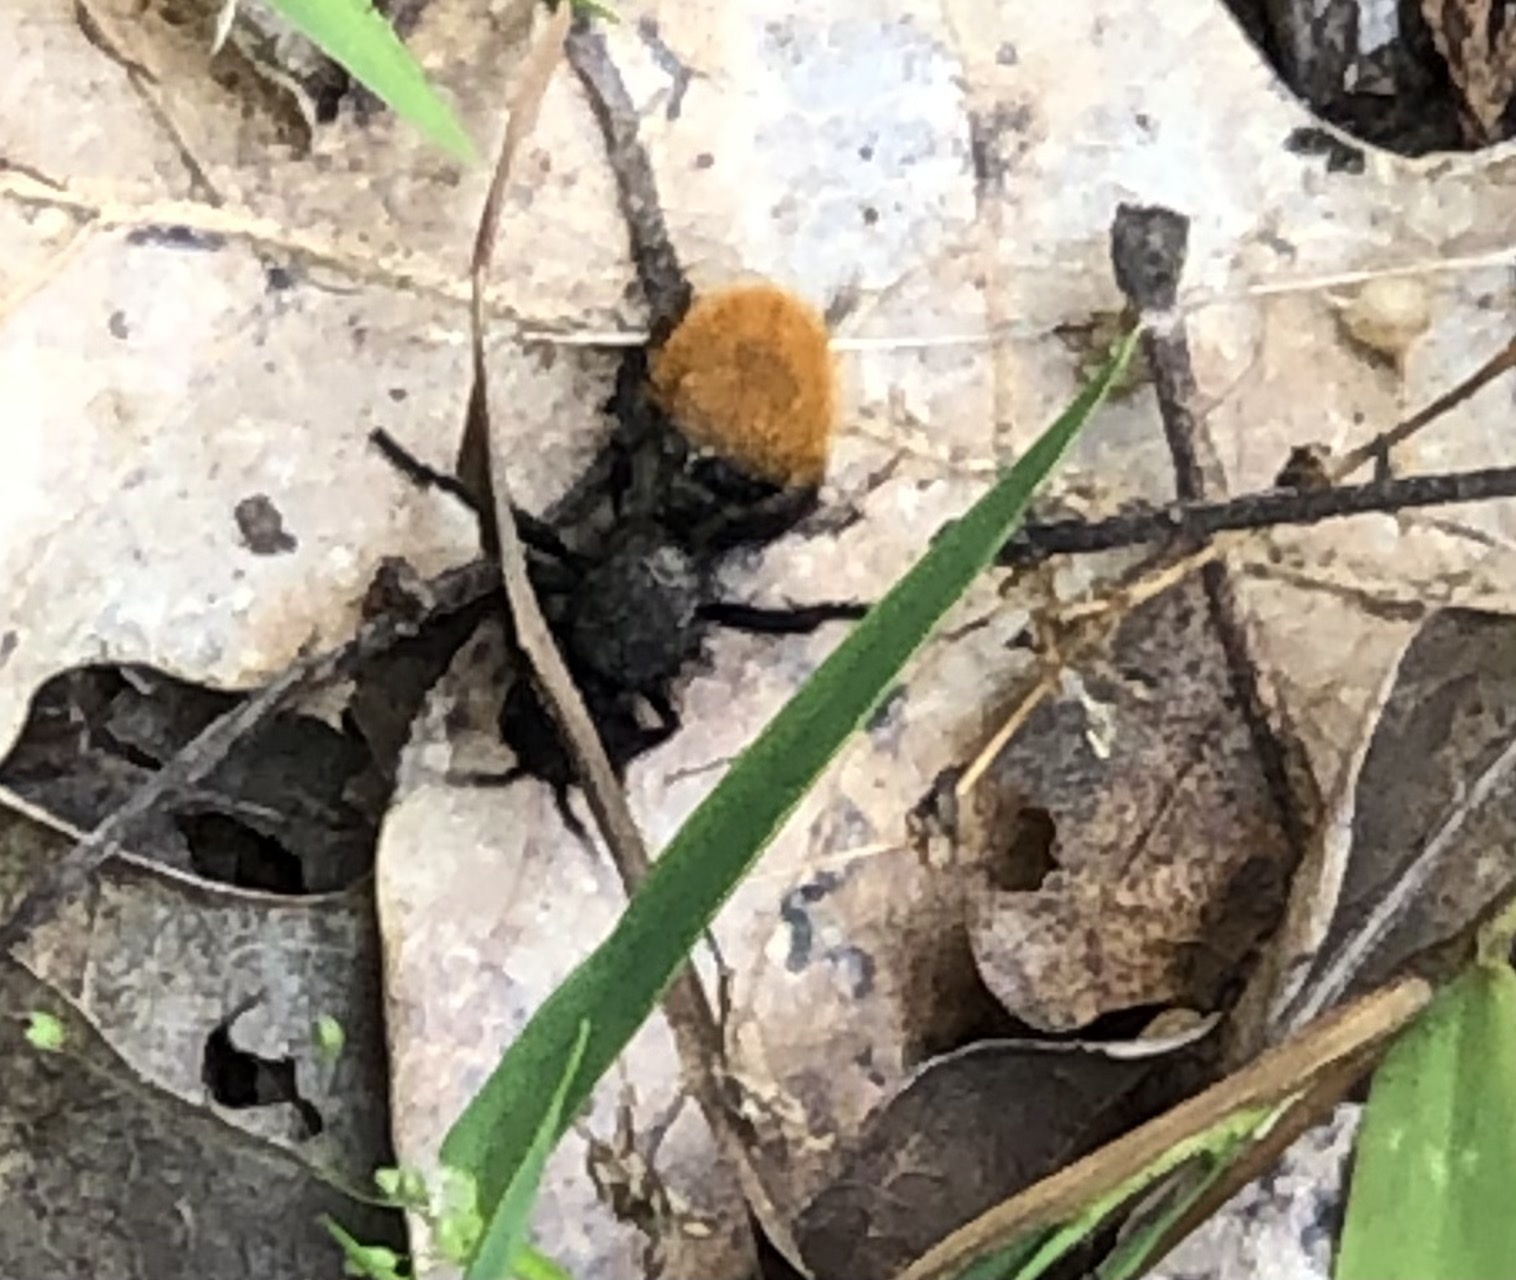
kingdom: Animalia
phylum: Arthropoda
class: Insecta
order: Hymenoptera
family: Mutillidae
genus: Dasymutilla
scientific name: Dasymutilla vestita
